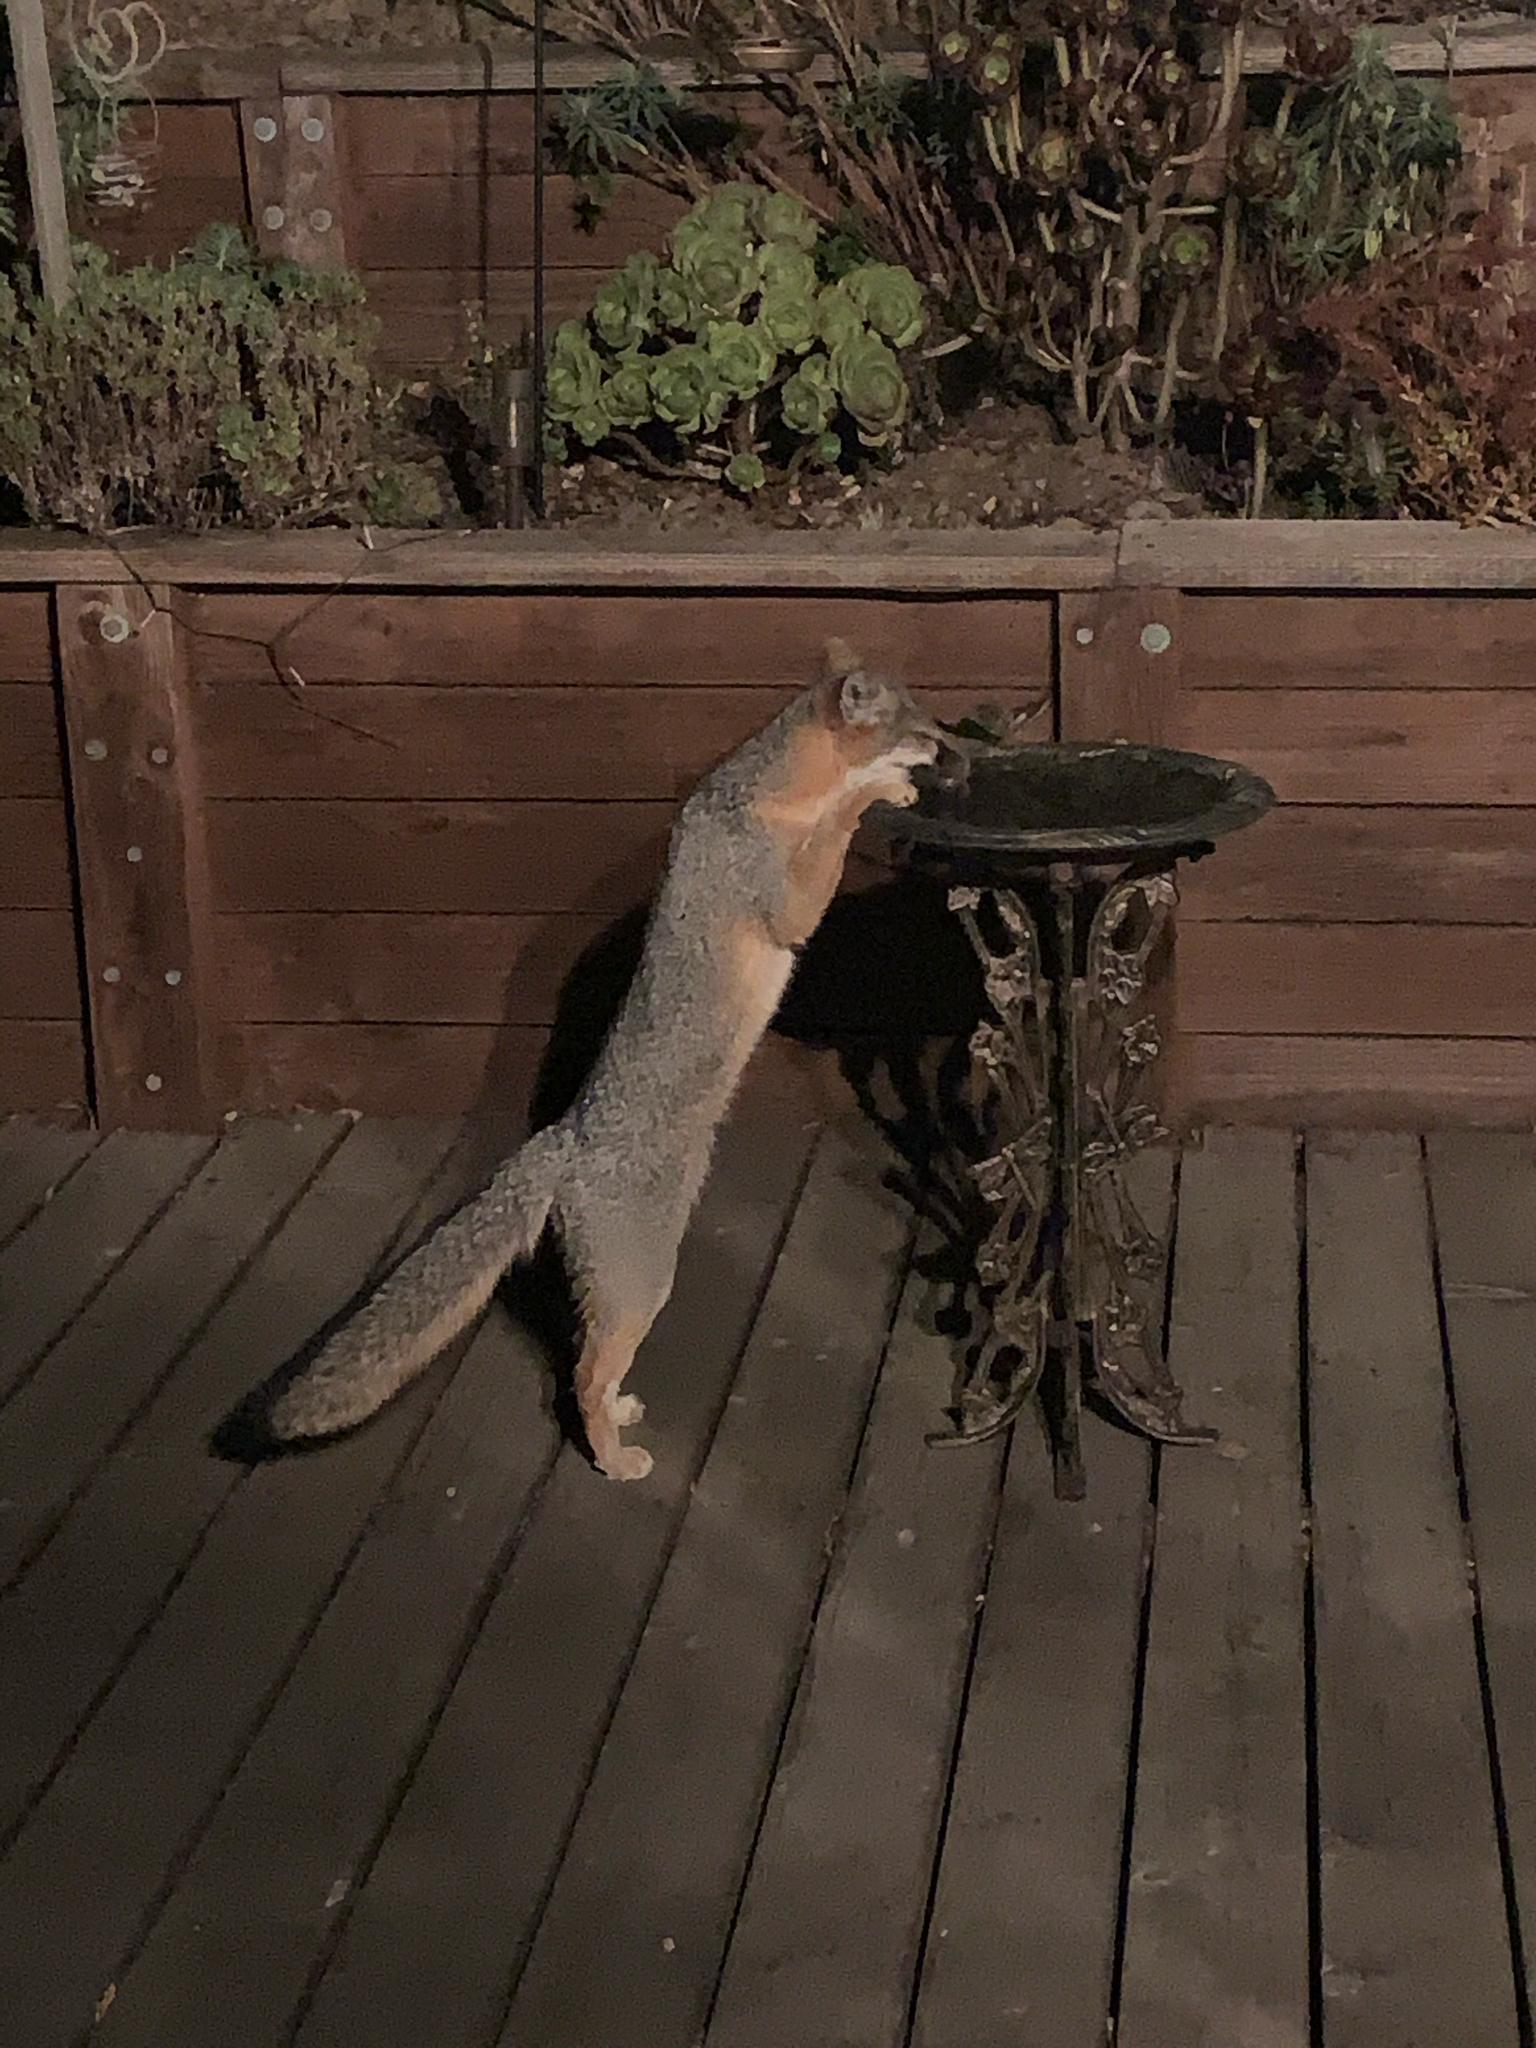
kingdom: Animalia
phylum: Chordata
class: Mammalia
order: Carnivora
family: Canidae
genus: Urocyon
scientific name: Urocyon cinereoargenteus
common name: Gray fox
